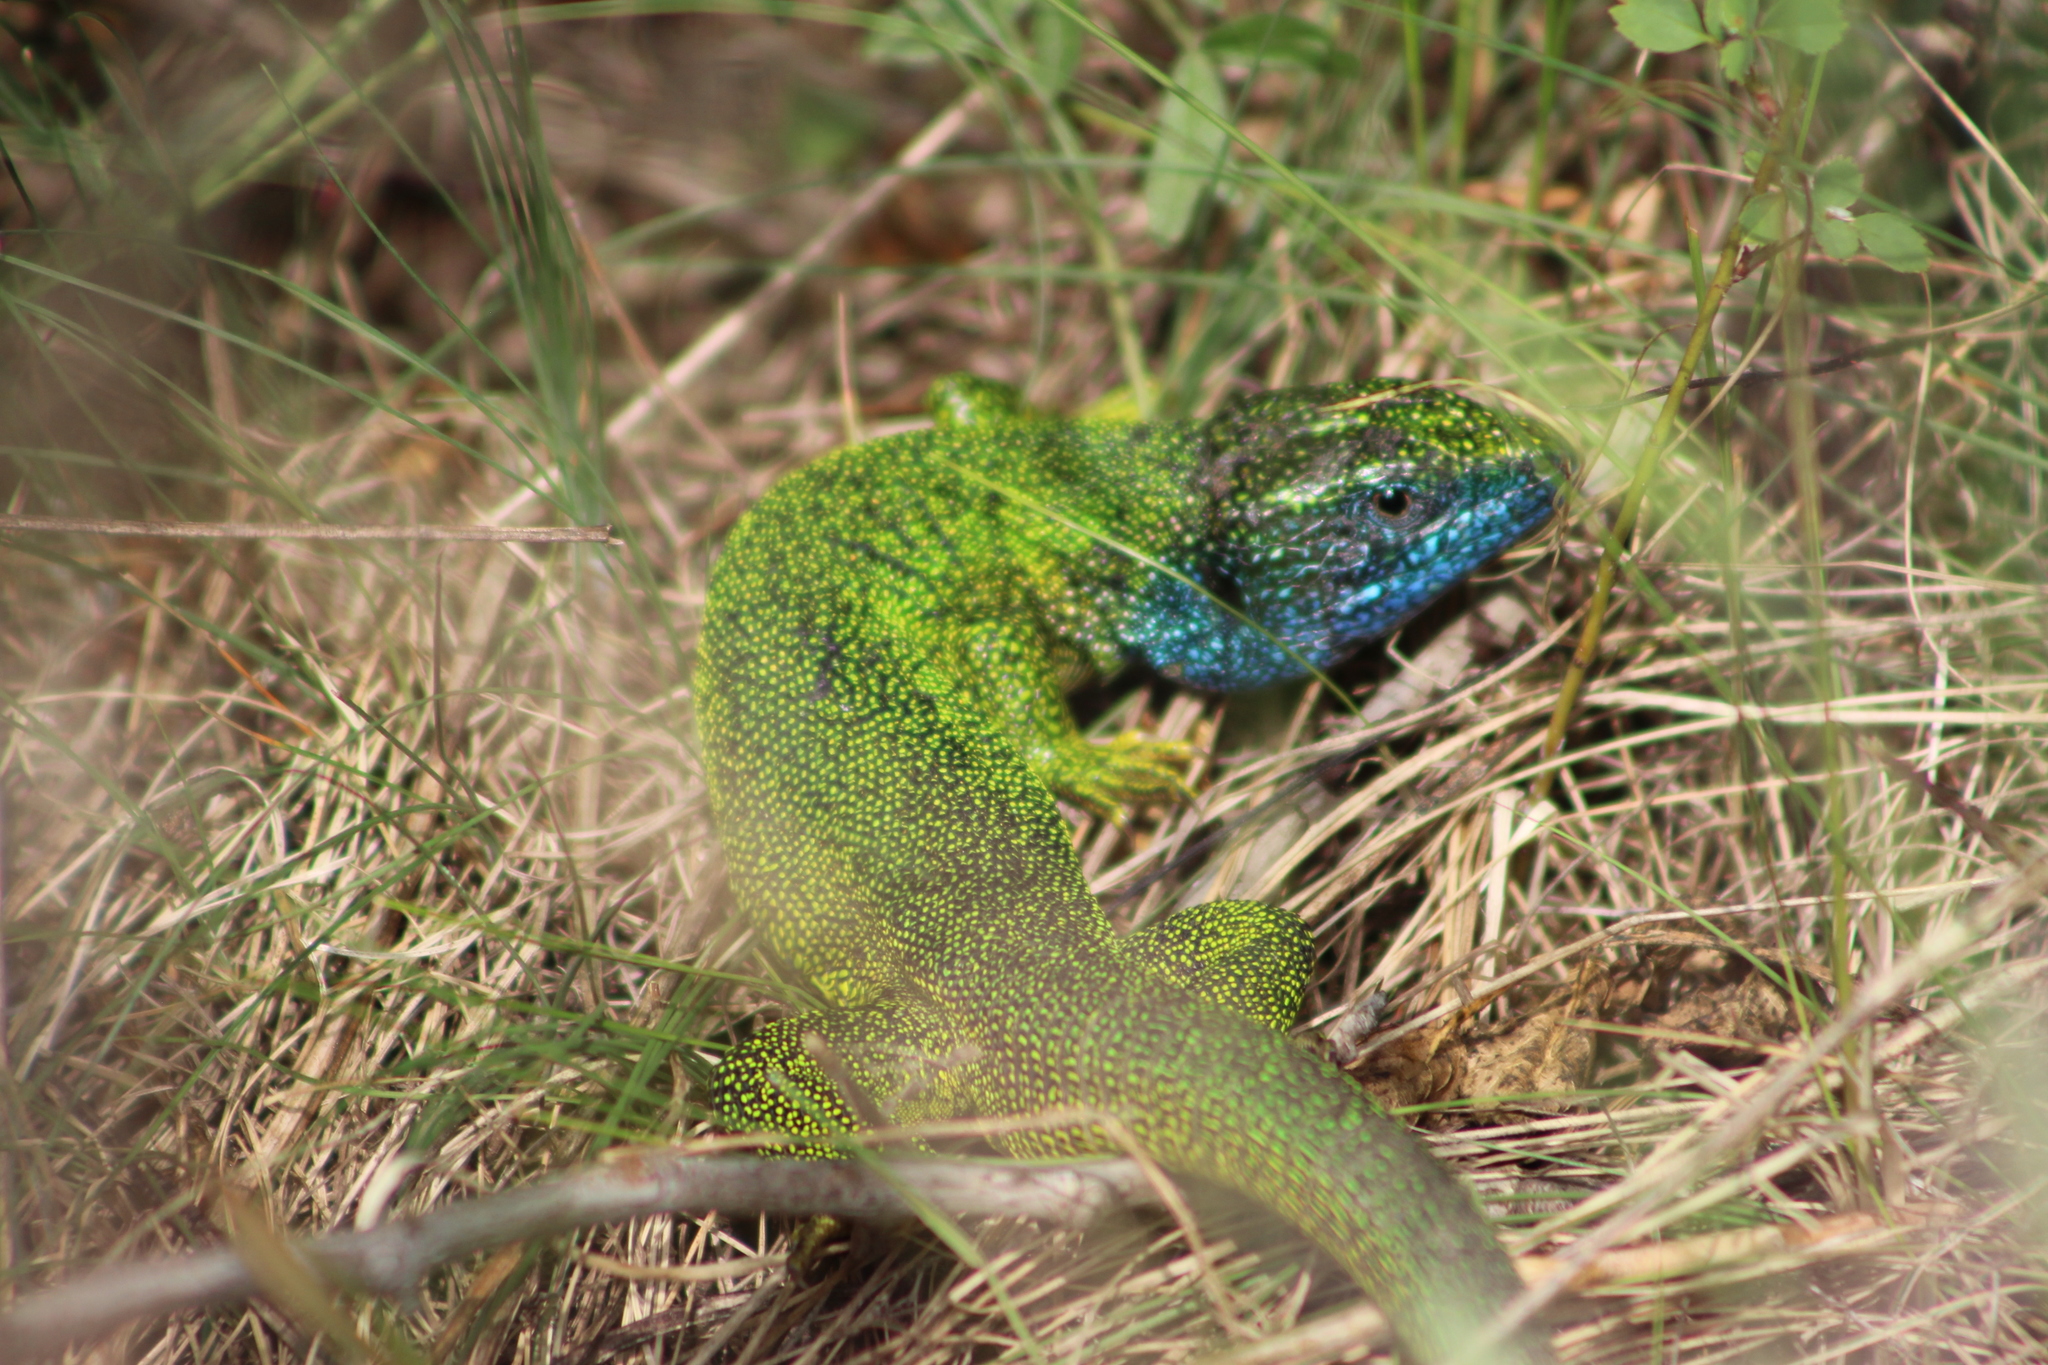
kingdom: Animalia
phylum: Chordata
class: Squamata
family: Lacertidae
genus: Lacerta
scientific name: Lacerta viridis
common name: European green lizard
